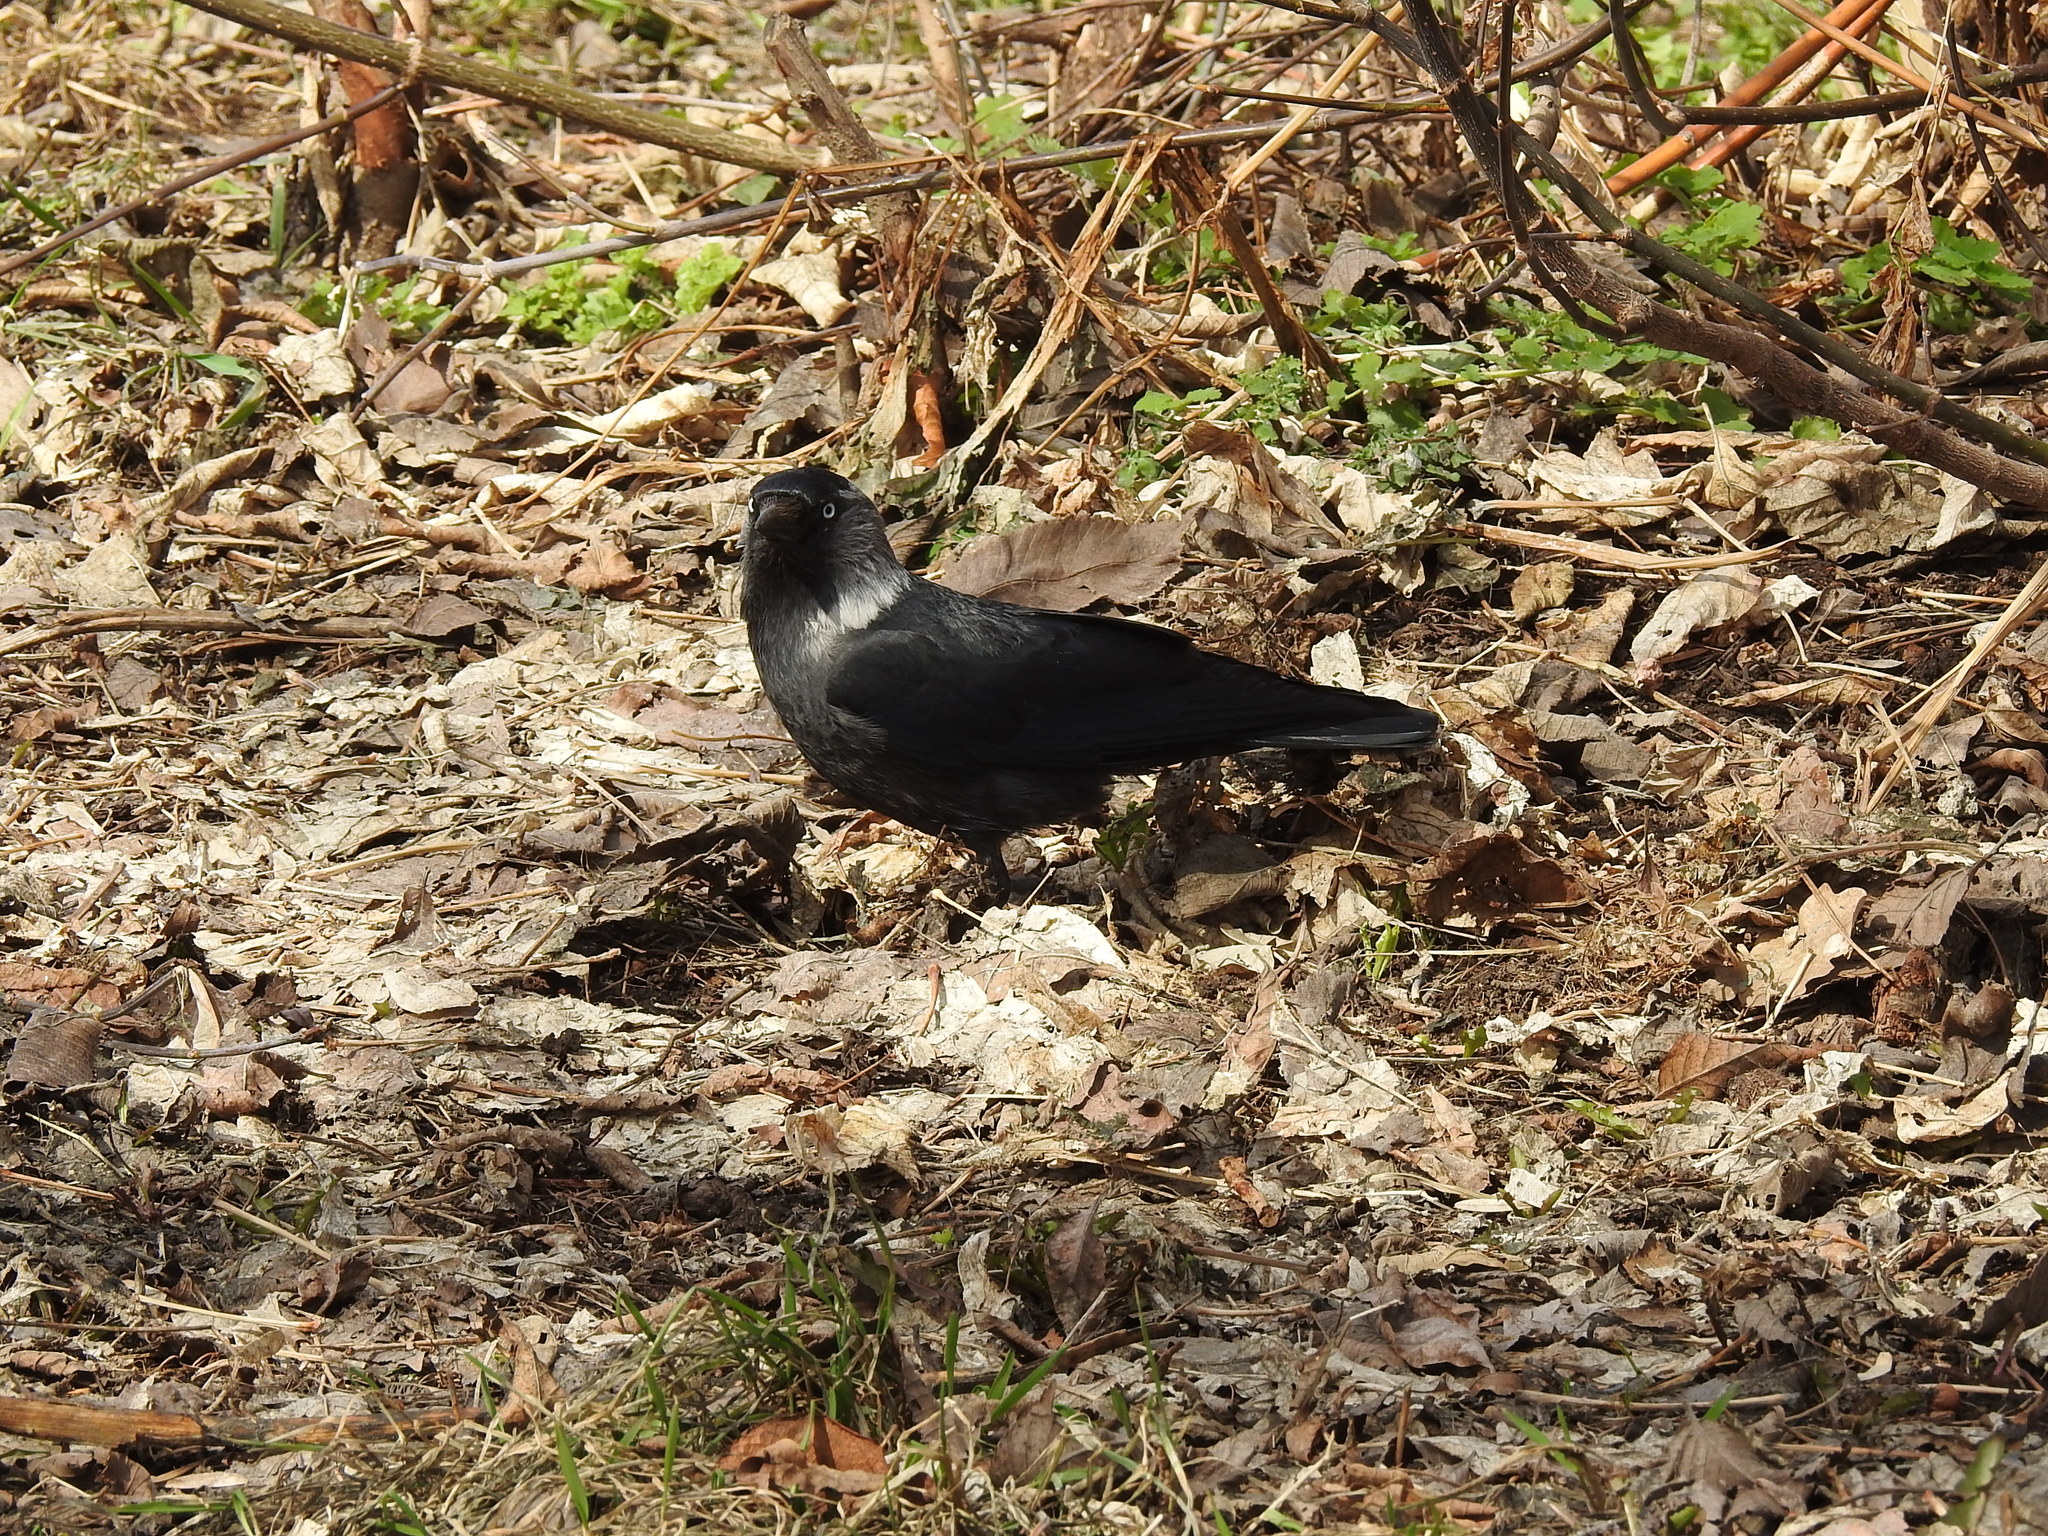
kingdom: Animalia
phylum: Chordata
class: Aves
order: Passeriformes
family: Corvidae
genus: Coloeus
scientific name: Coloeus monedula
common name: Western jackdaw
